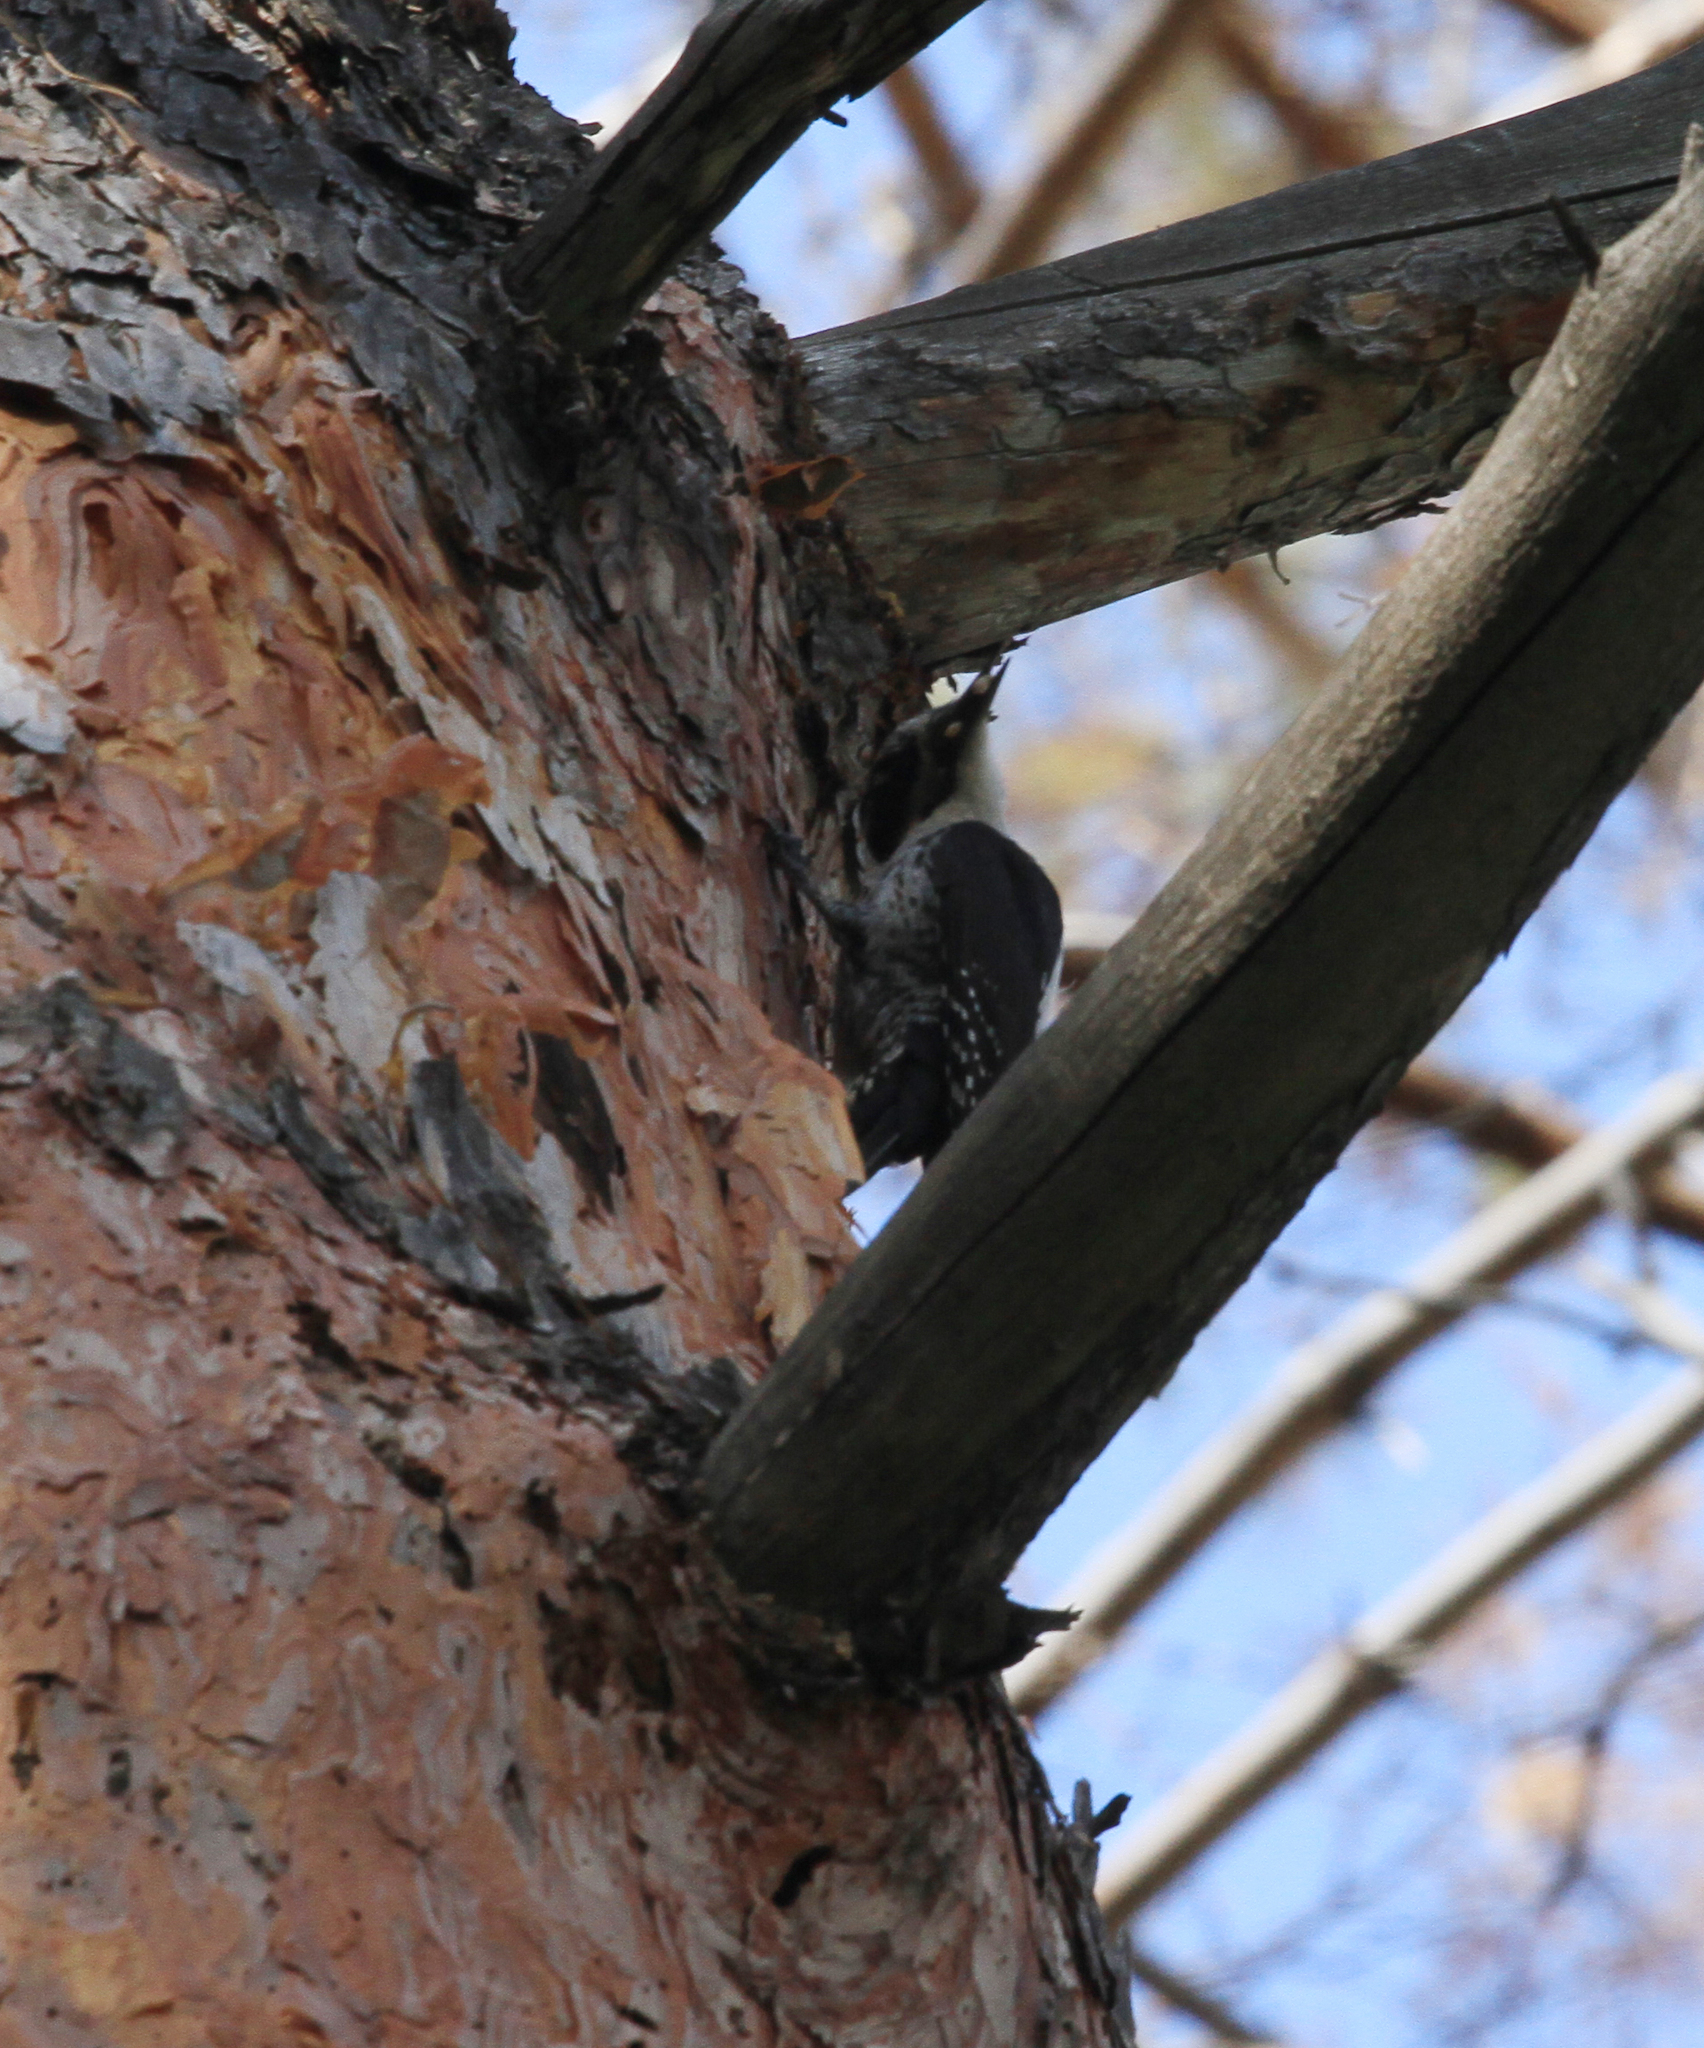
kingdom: Animalia
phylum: Chordata
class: Aves
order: Piciformes
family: Picidae
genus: Picoides
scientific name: Picoides tridactylus
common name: Eurasian three-toed woodpecker
